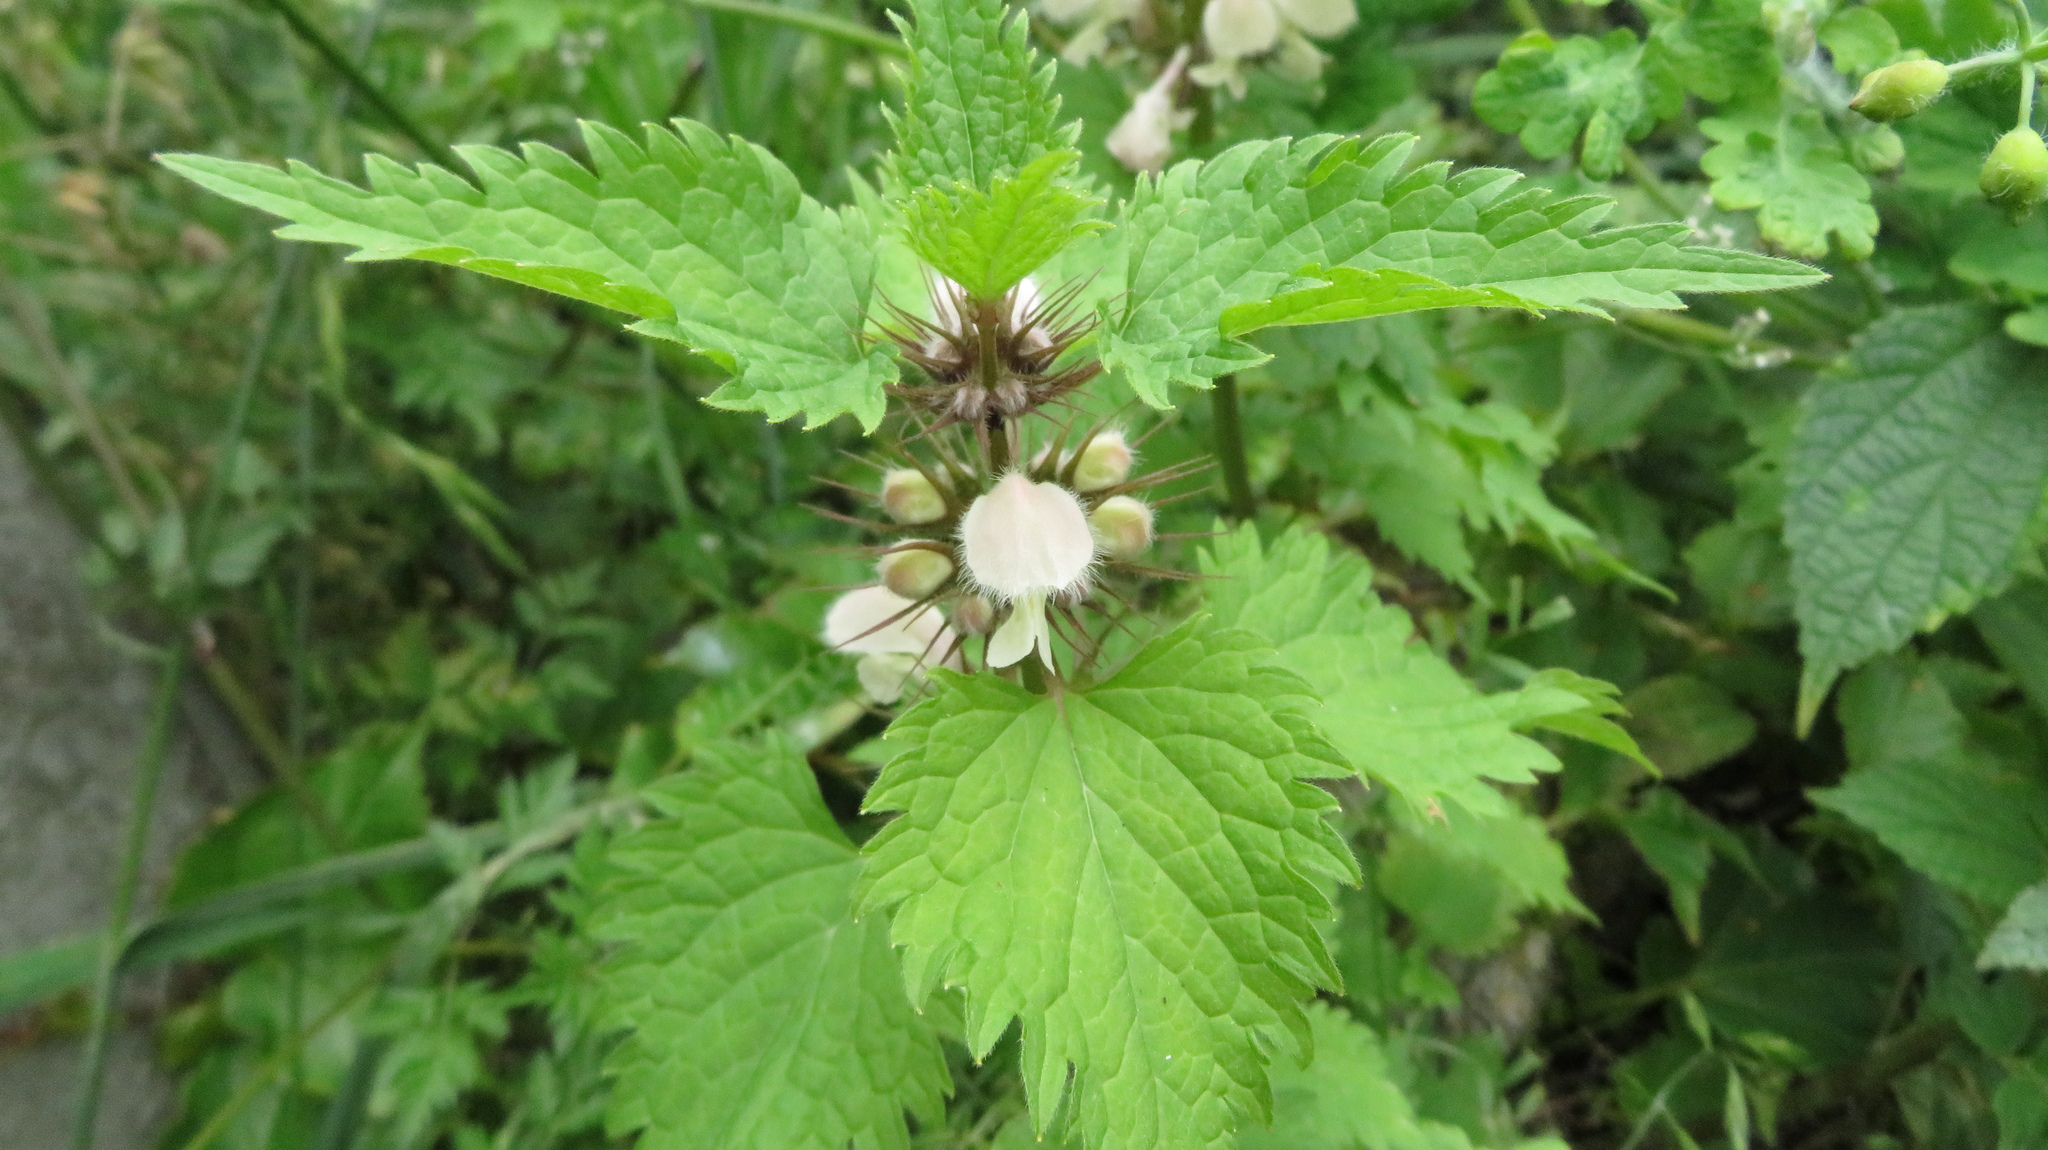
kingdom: Plantae
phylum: Tracheophyta
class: Magnoliopsida
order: Lamiales
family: Lamiaceae
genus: Lamium
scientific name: Lamium album
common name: White dead-nettle
